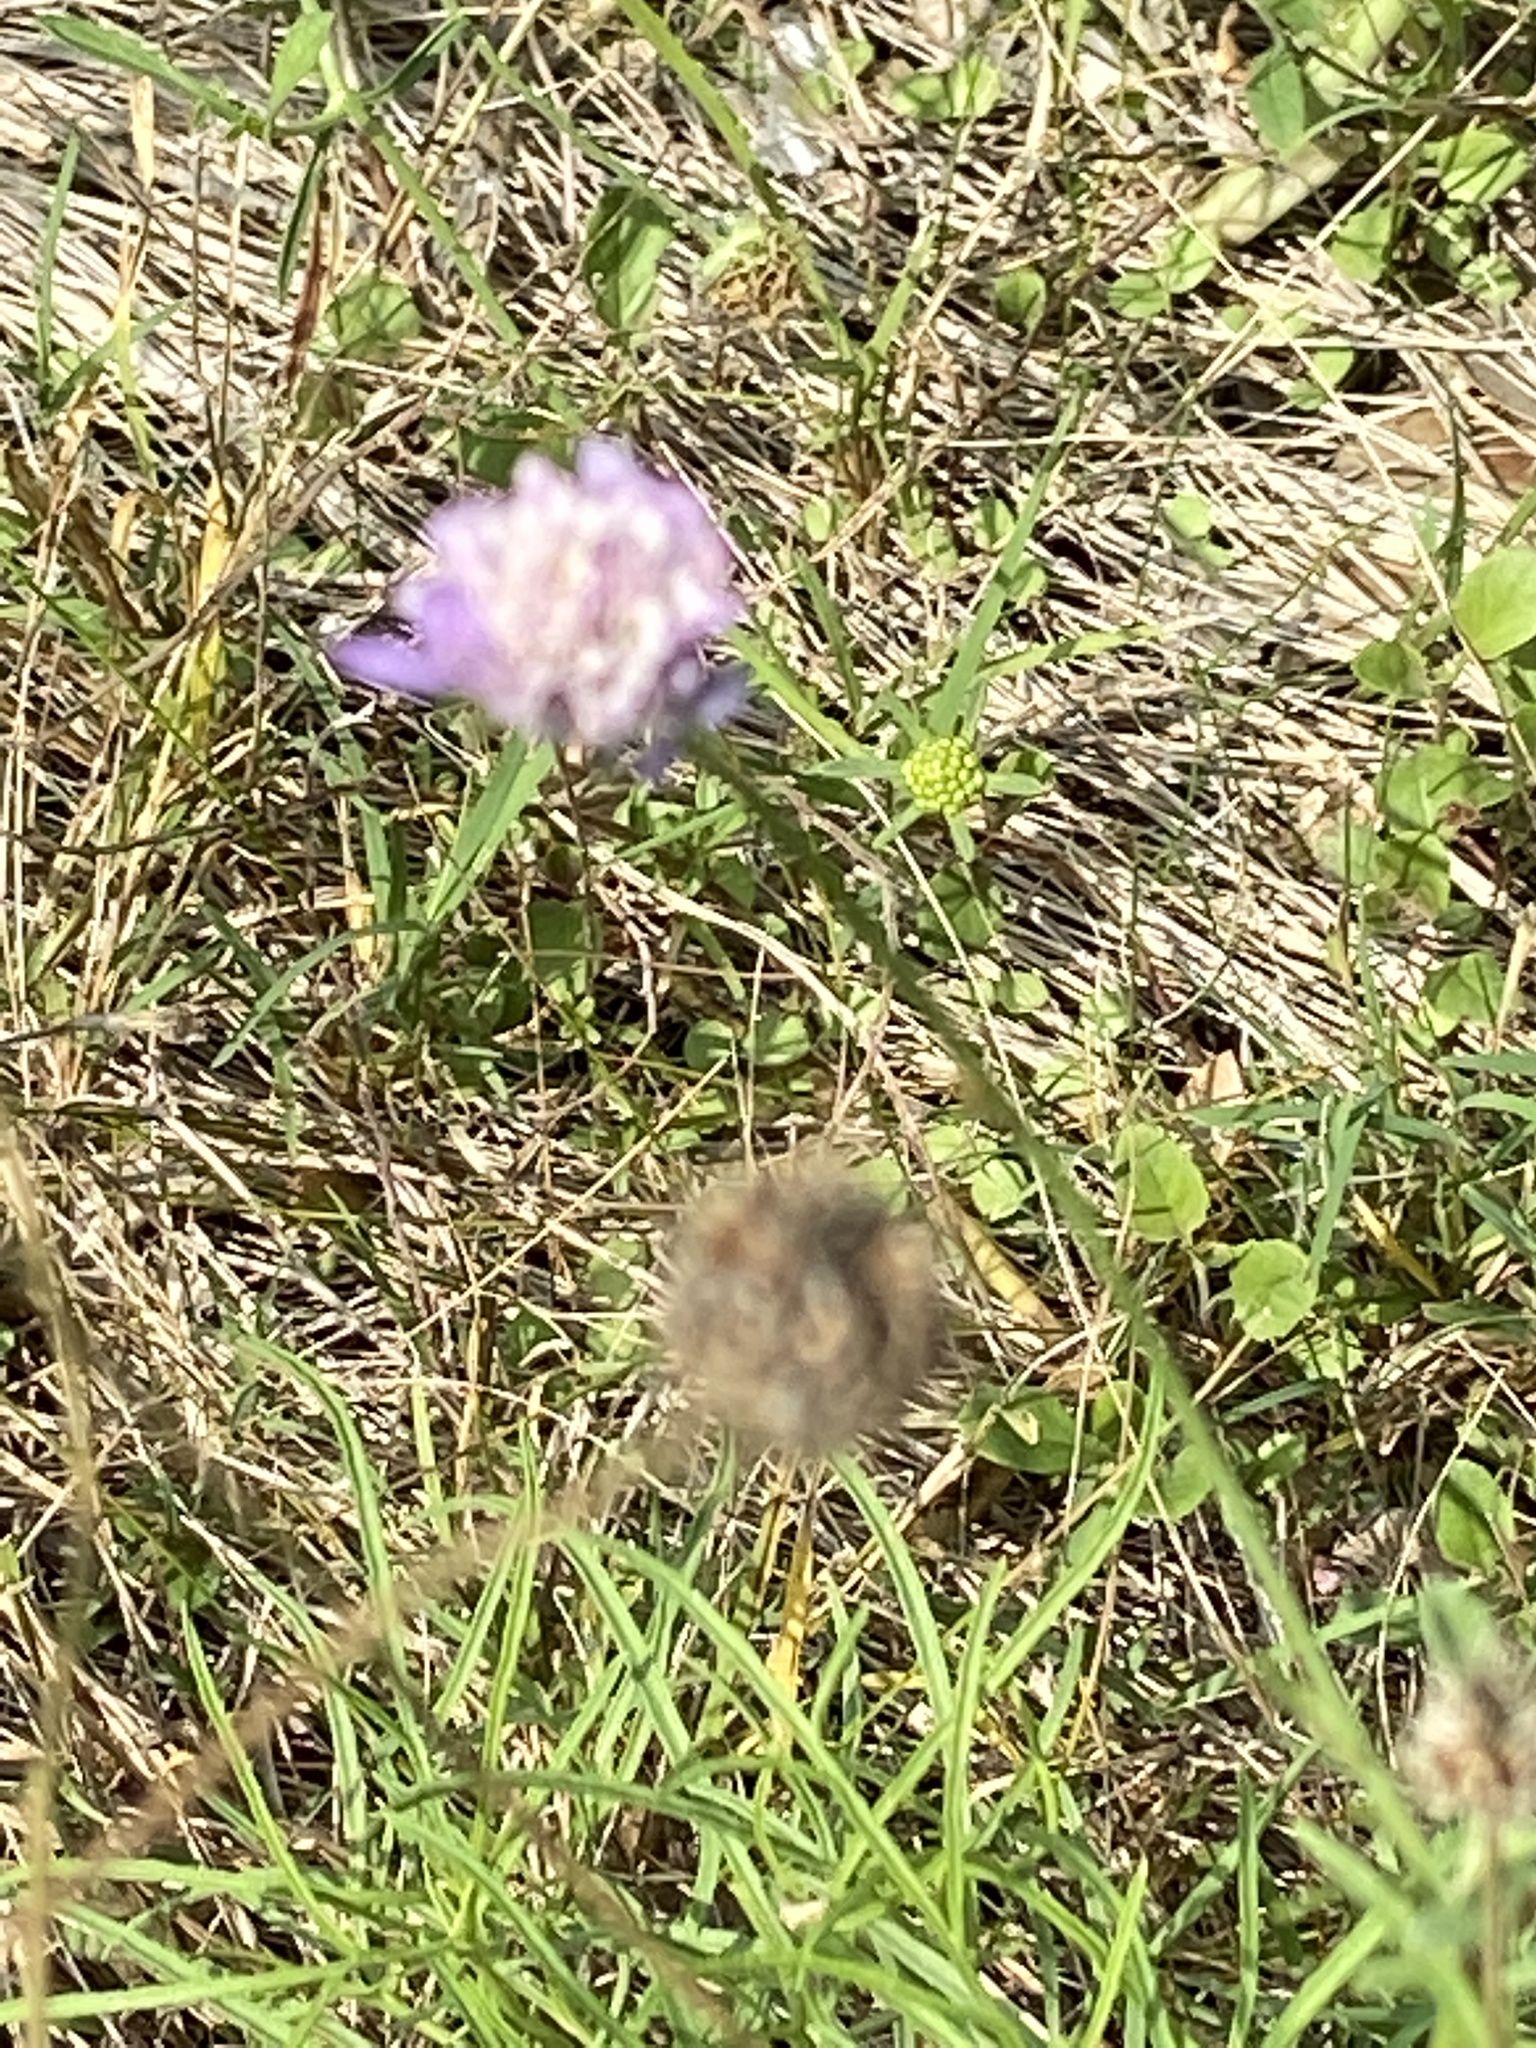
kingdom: Plantae
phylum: Tracheophyta
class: Magnoliopsida
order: Dipsacales
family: Caprifoliaceae
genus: Sixalix
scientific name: Sixalix atropurpurea
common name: Sweet scabious
